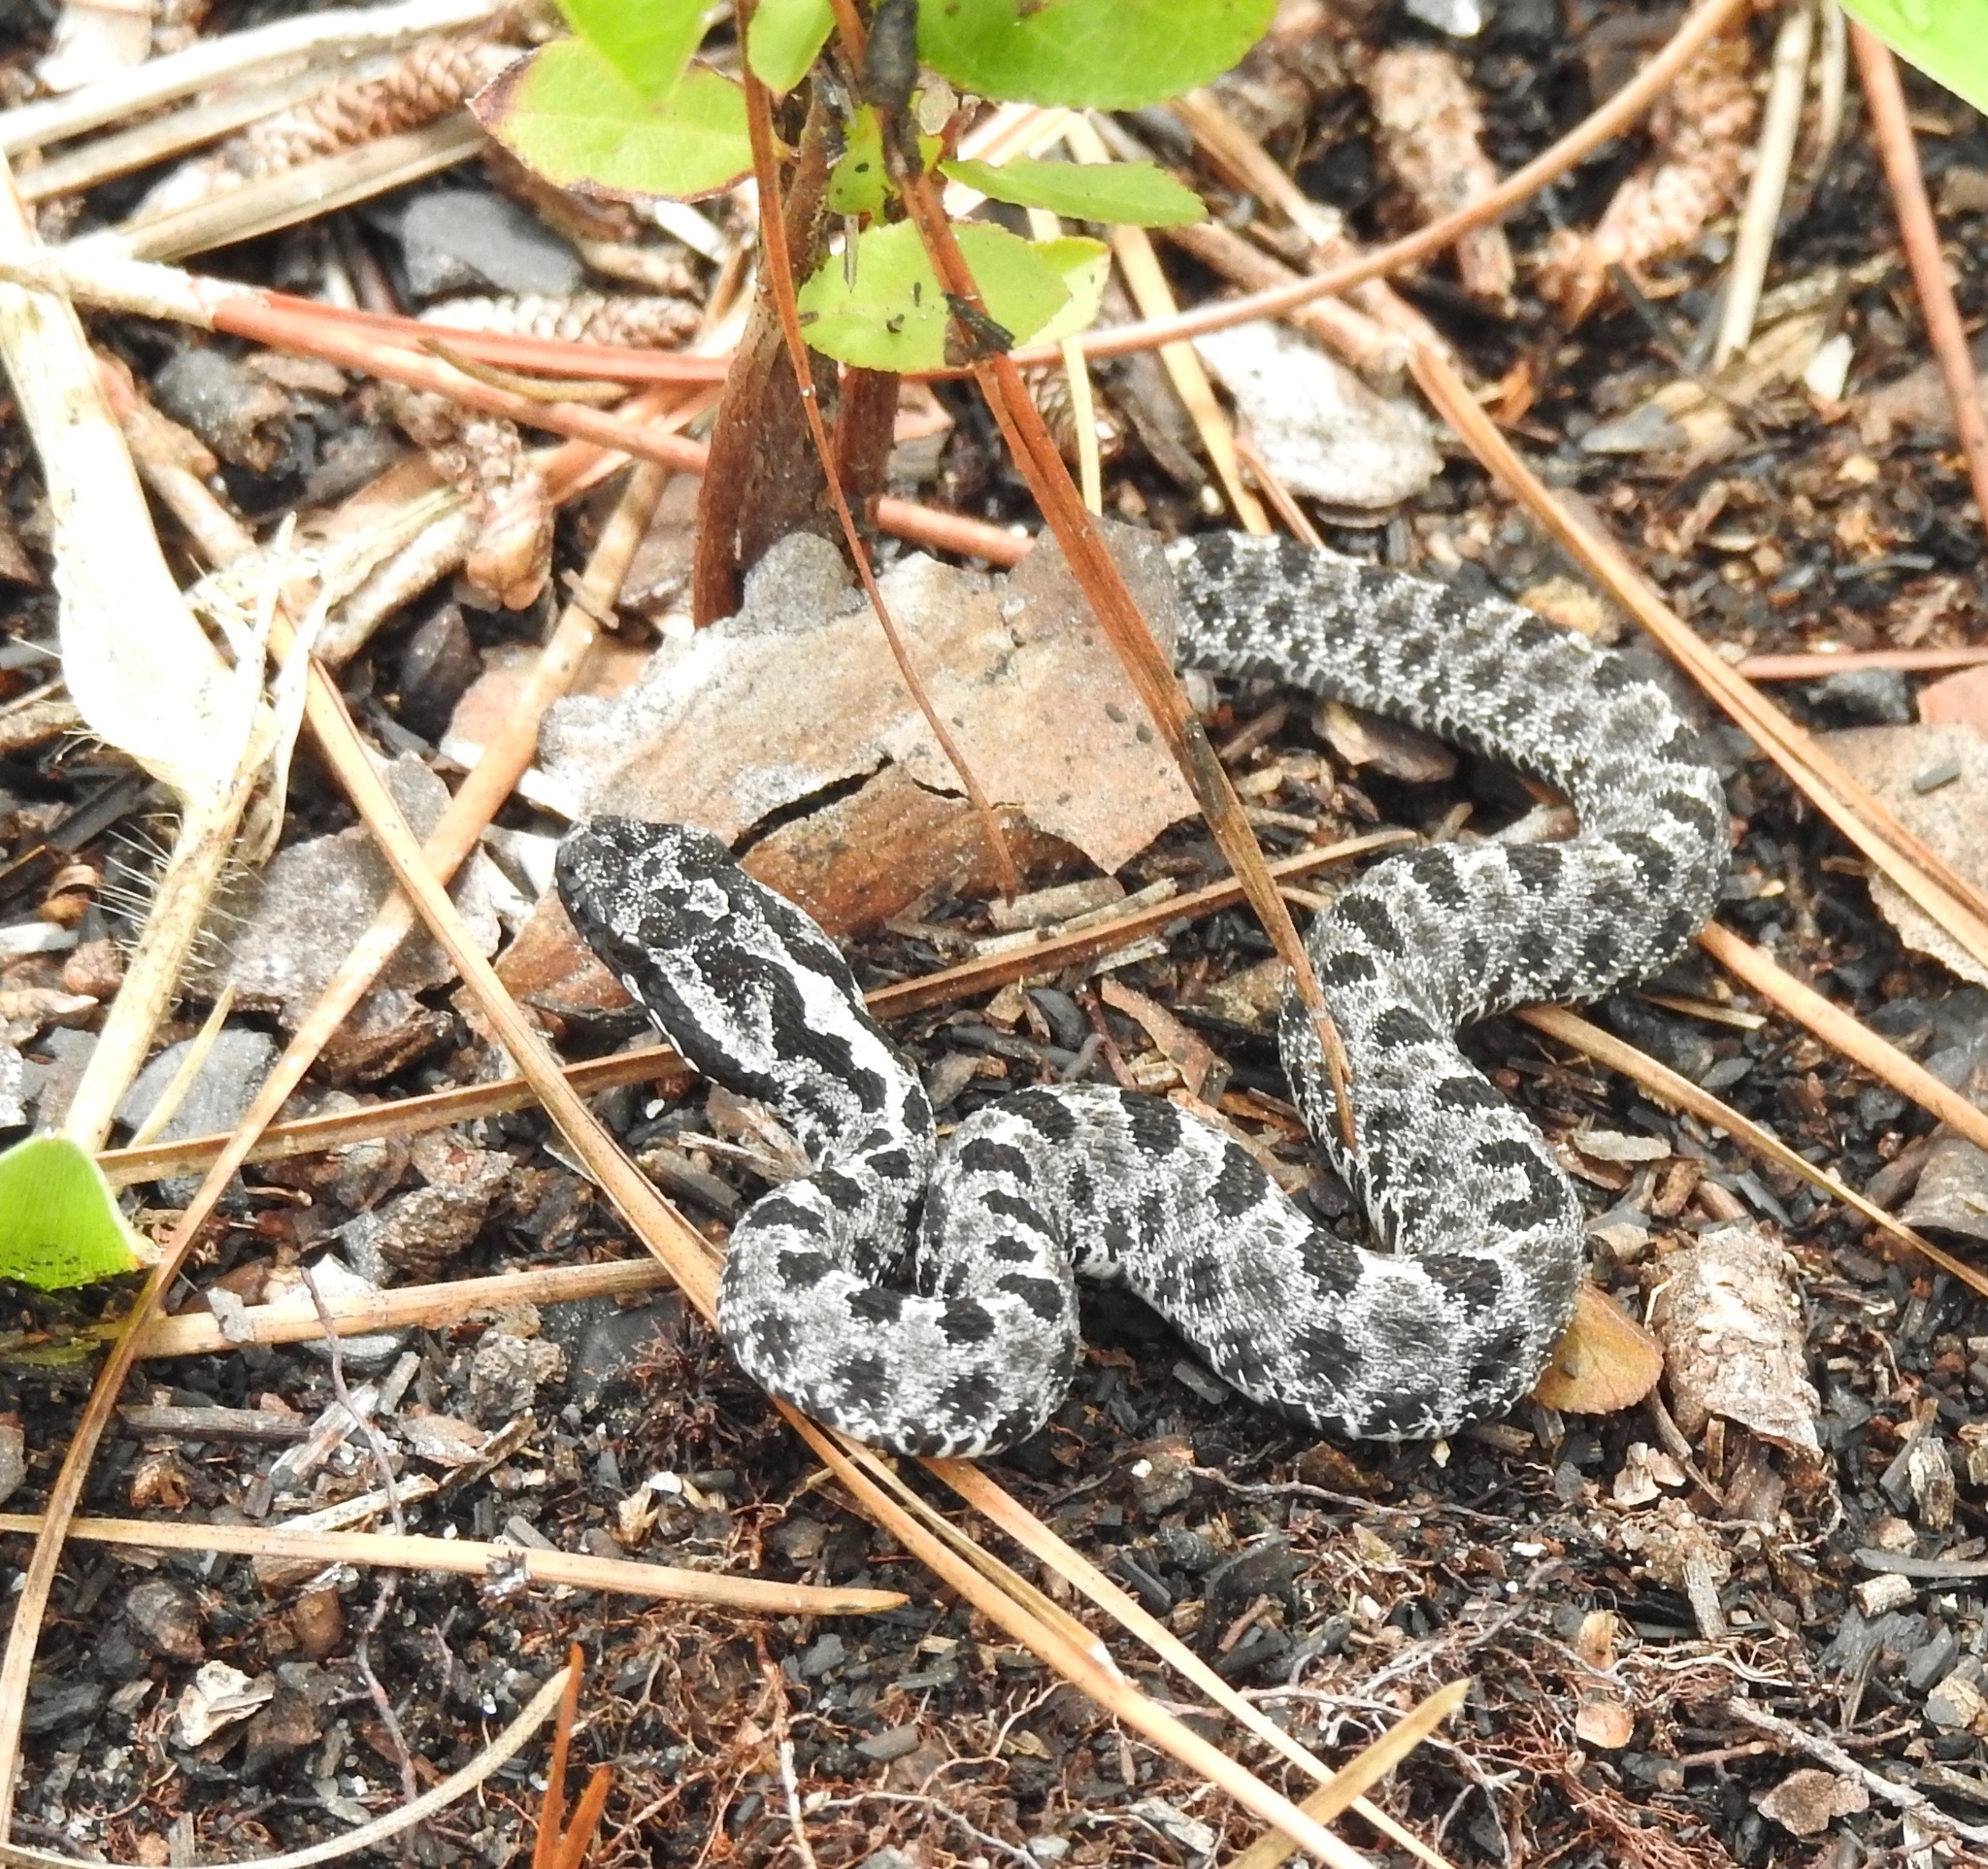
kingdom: Animalia
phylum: Chordata
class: Squamata
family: Viperidae
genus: Sistrurus
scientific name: Sistrurus miliarius
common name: Pygmy rattlesnake
